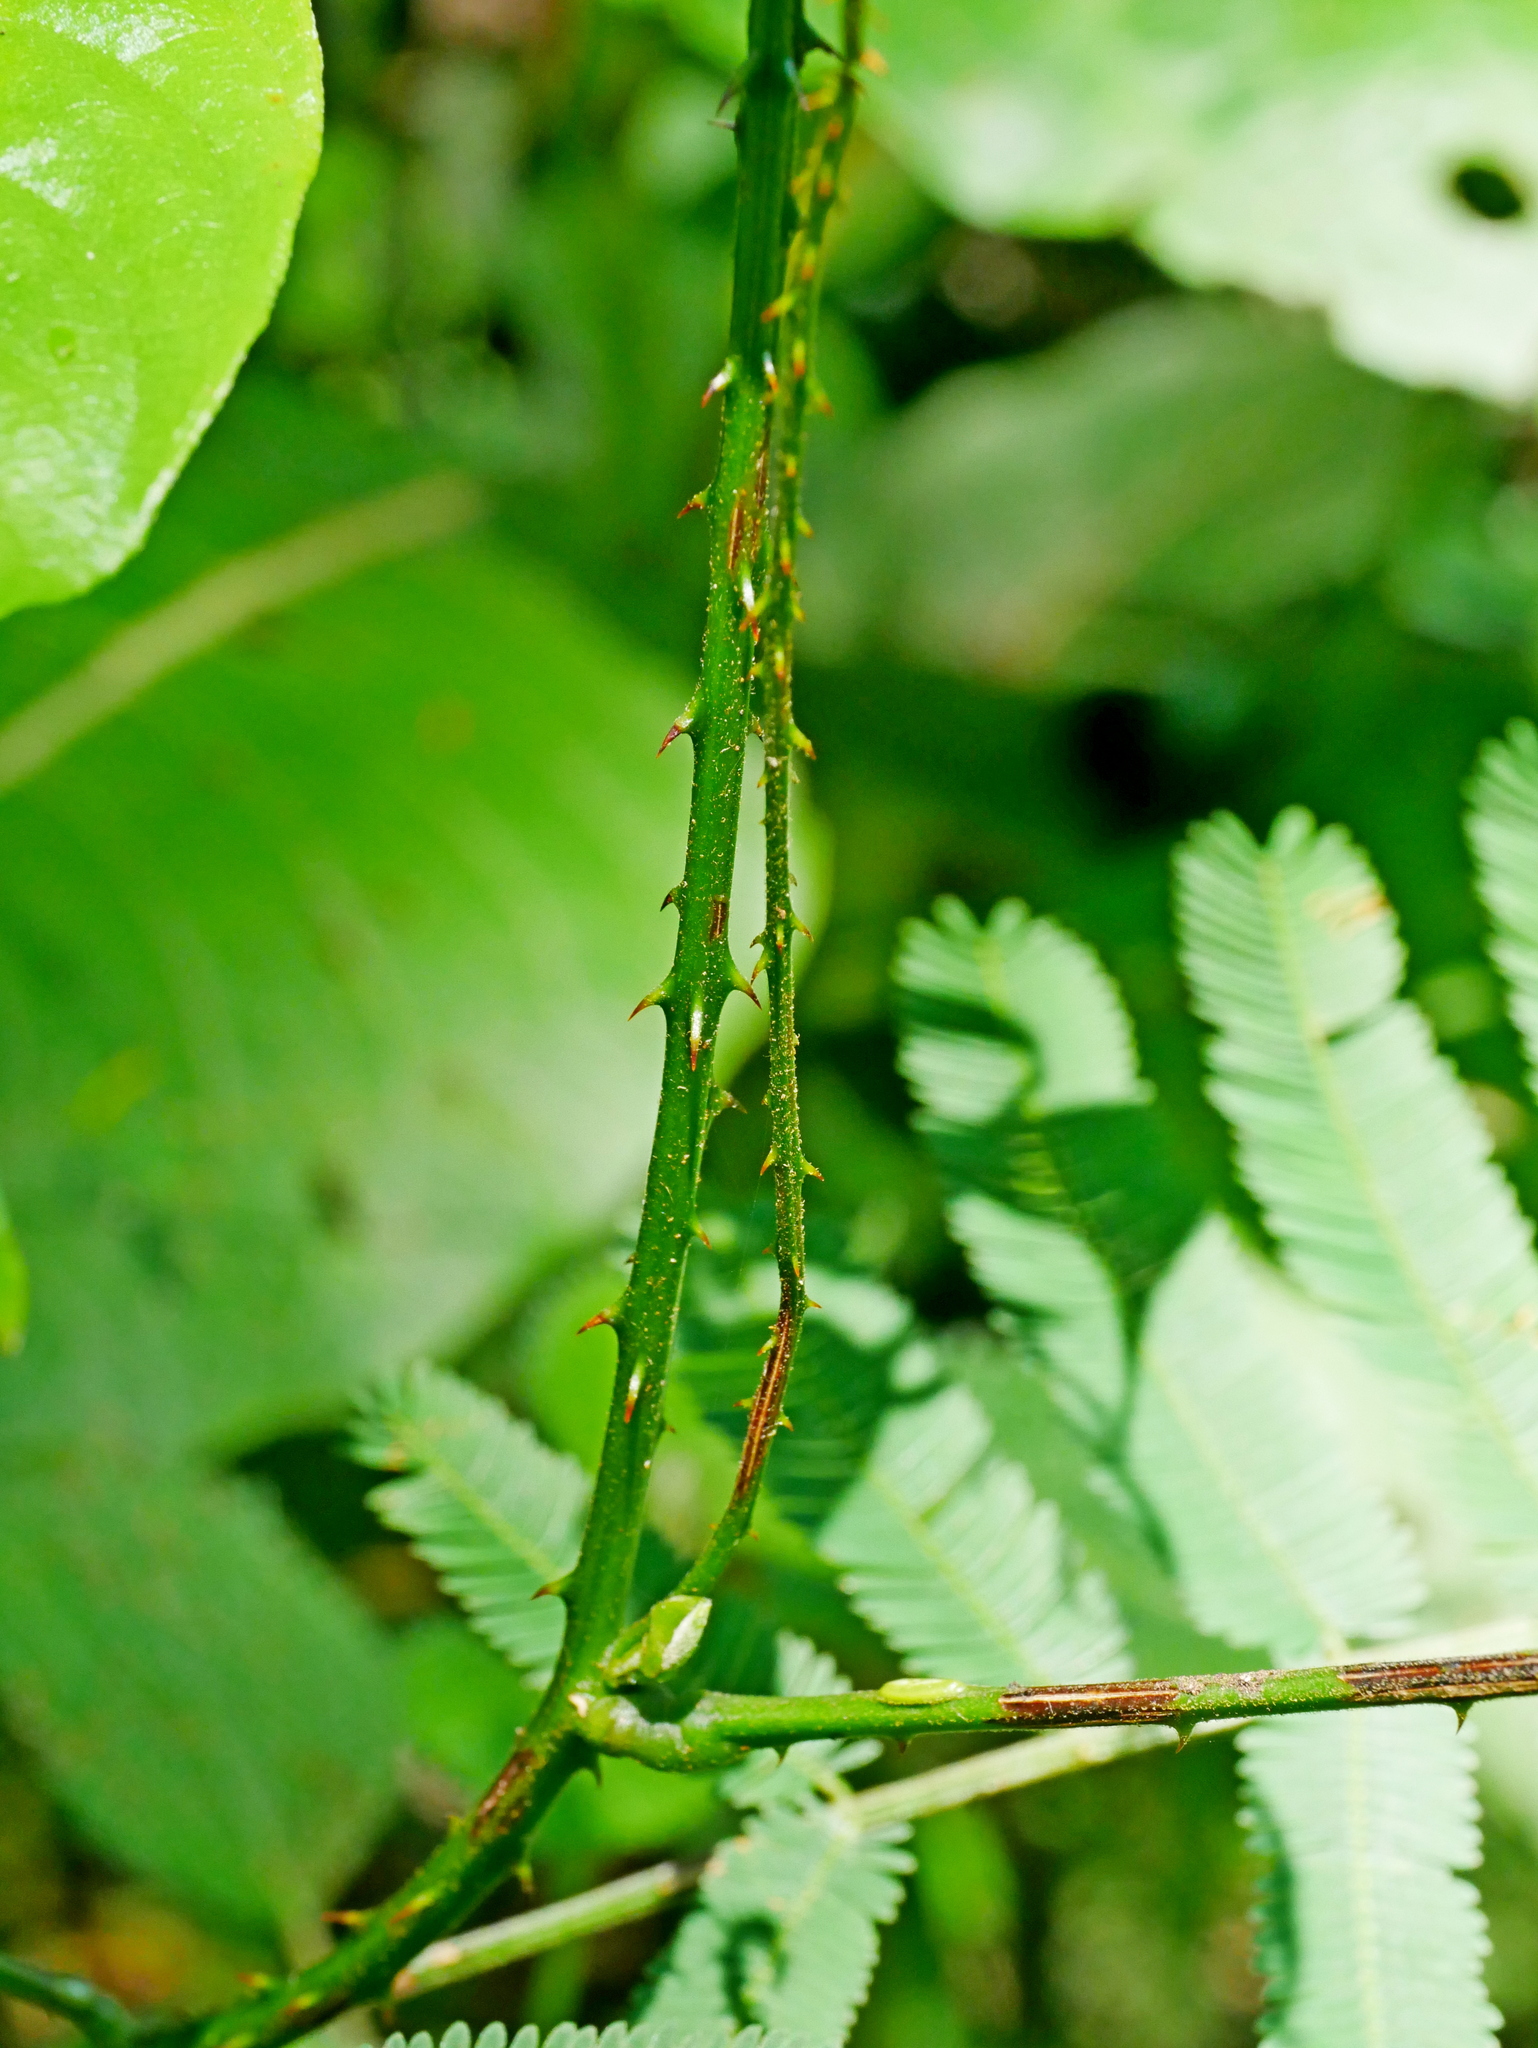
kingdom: Plantae
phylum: Tracheophyta
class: Magnoliopsida
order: Fabales
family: Fabaceae
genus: Senegalia
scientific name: Senegalia orientalis
